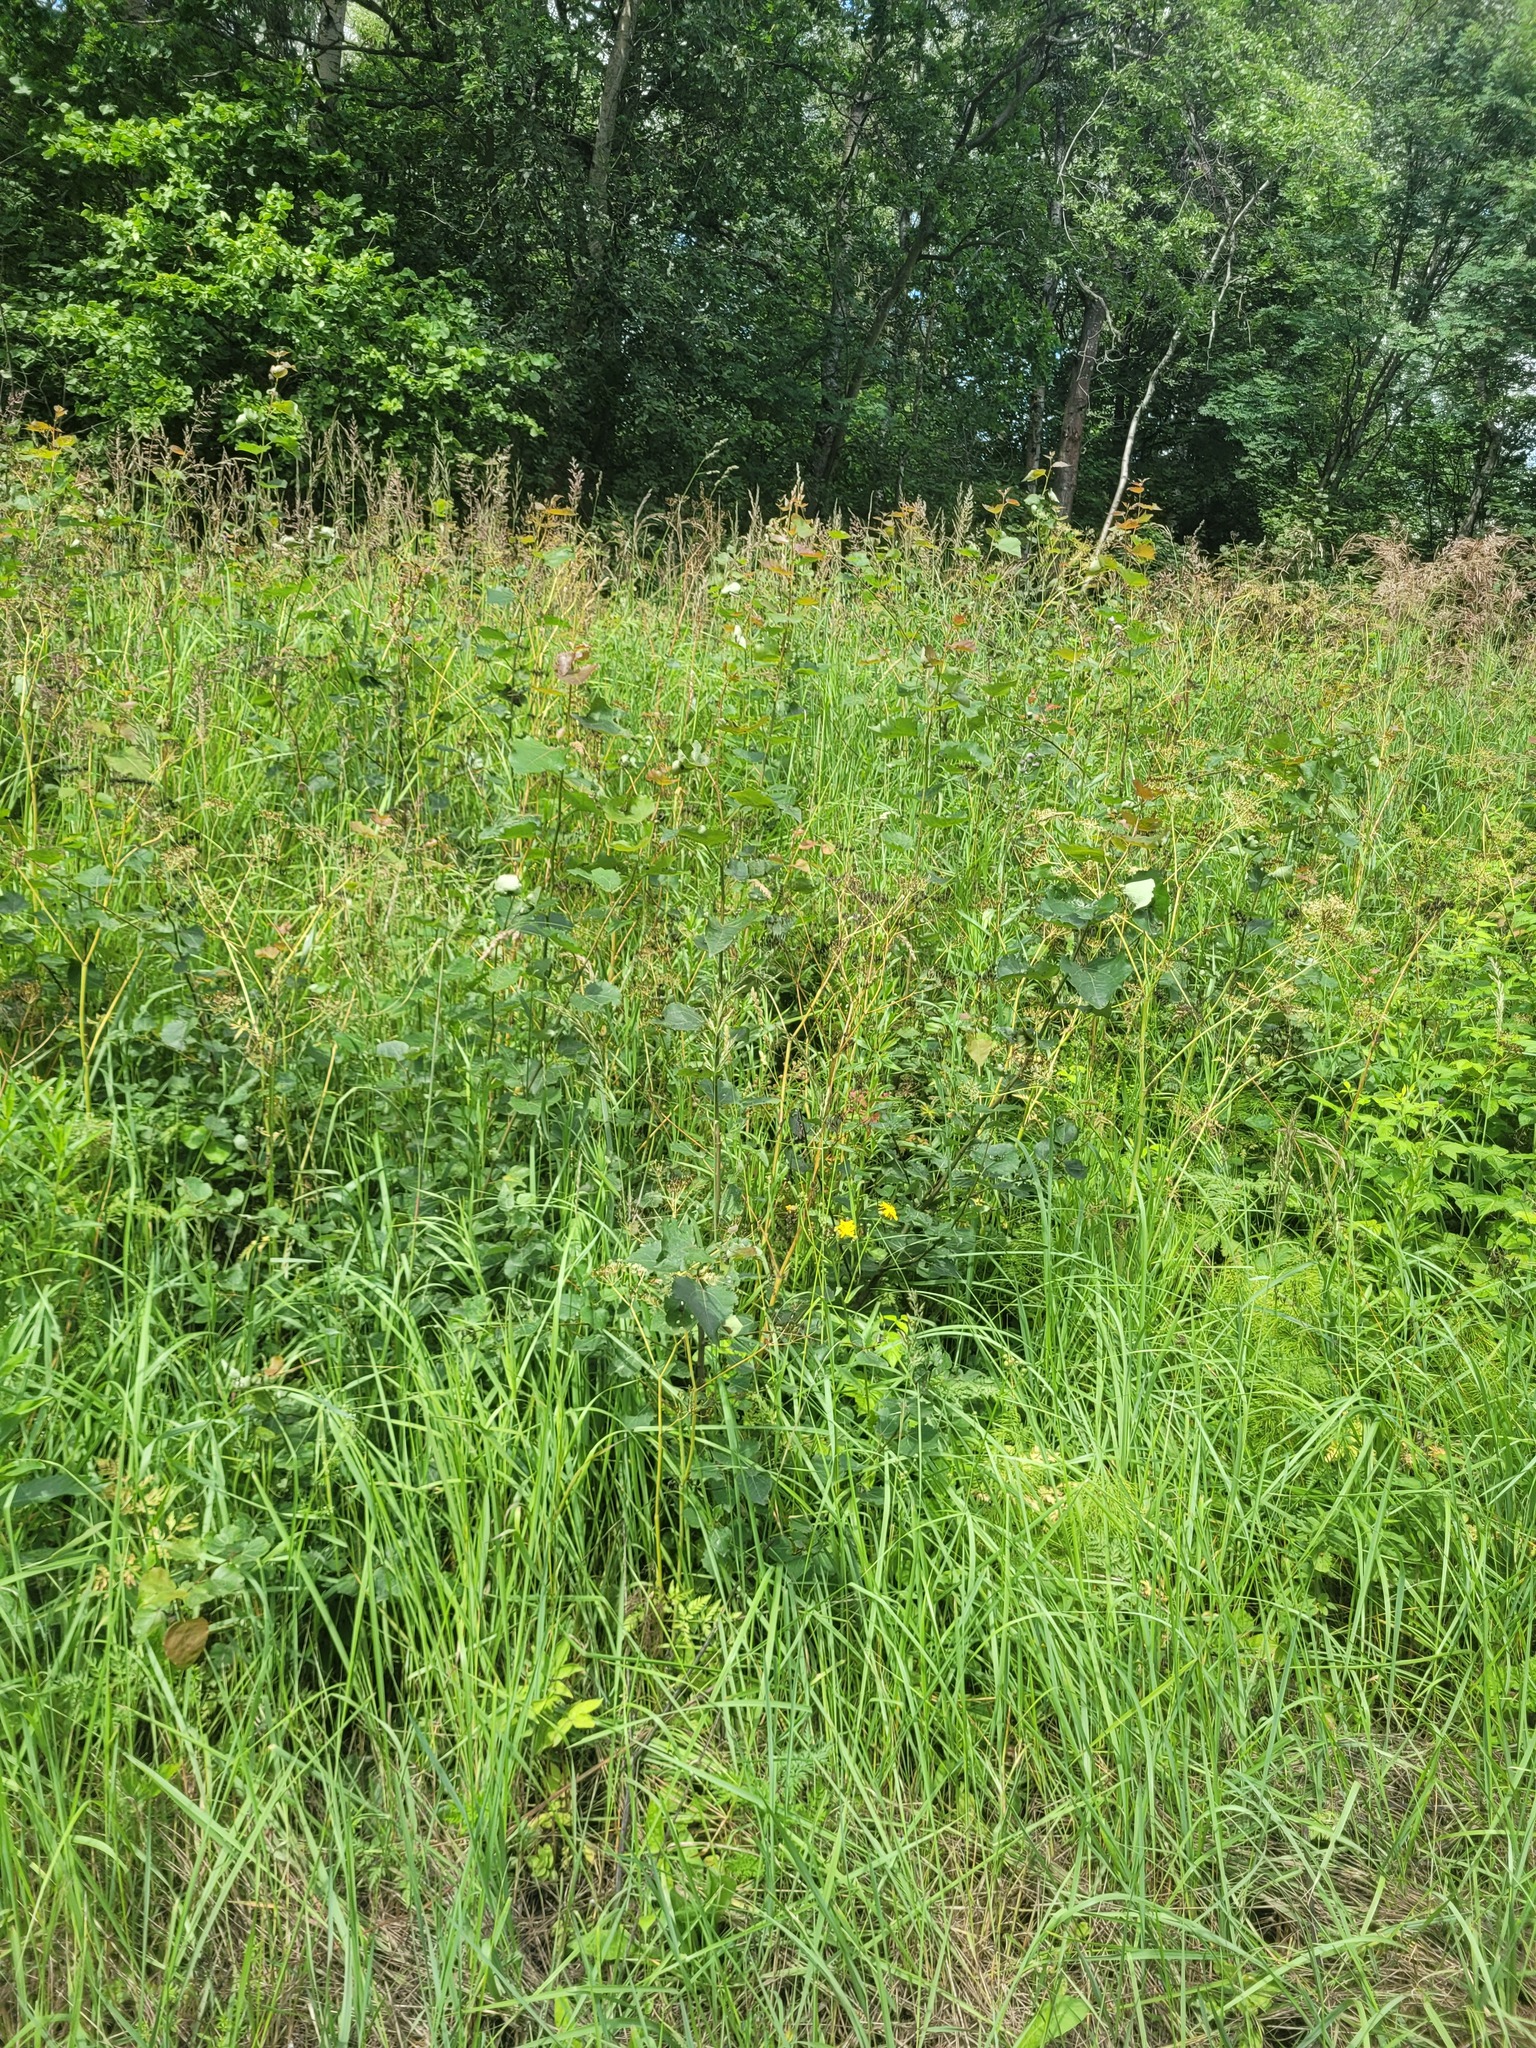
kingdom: Plantae
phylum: Tracheophyta
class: Magnoliopsida
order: Malpighiales
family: Salicaceae
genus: Populus
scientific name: Populus tremula
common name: European aspen
